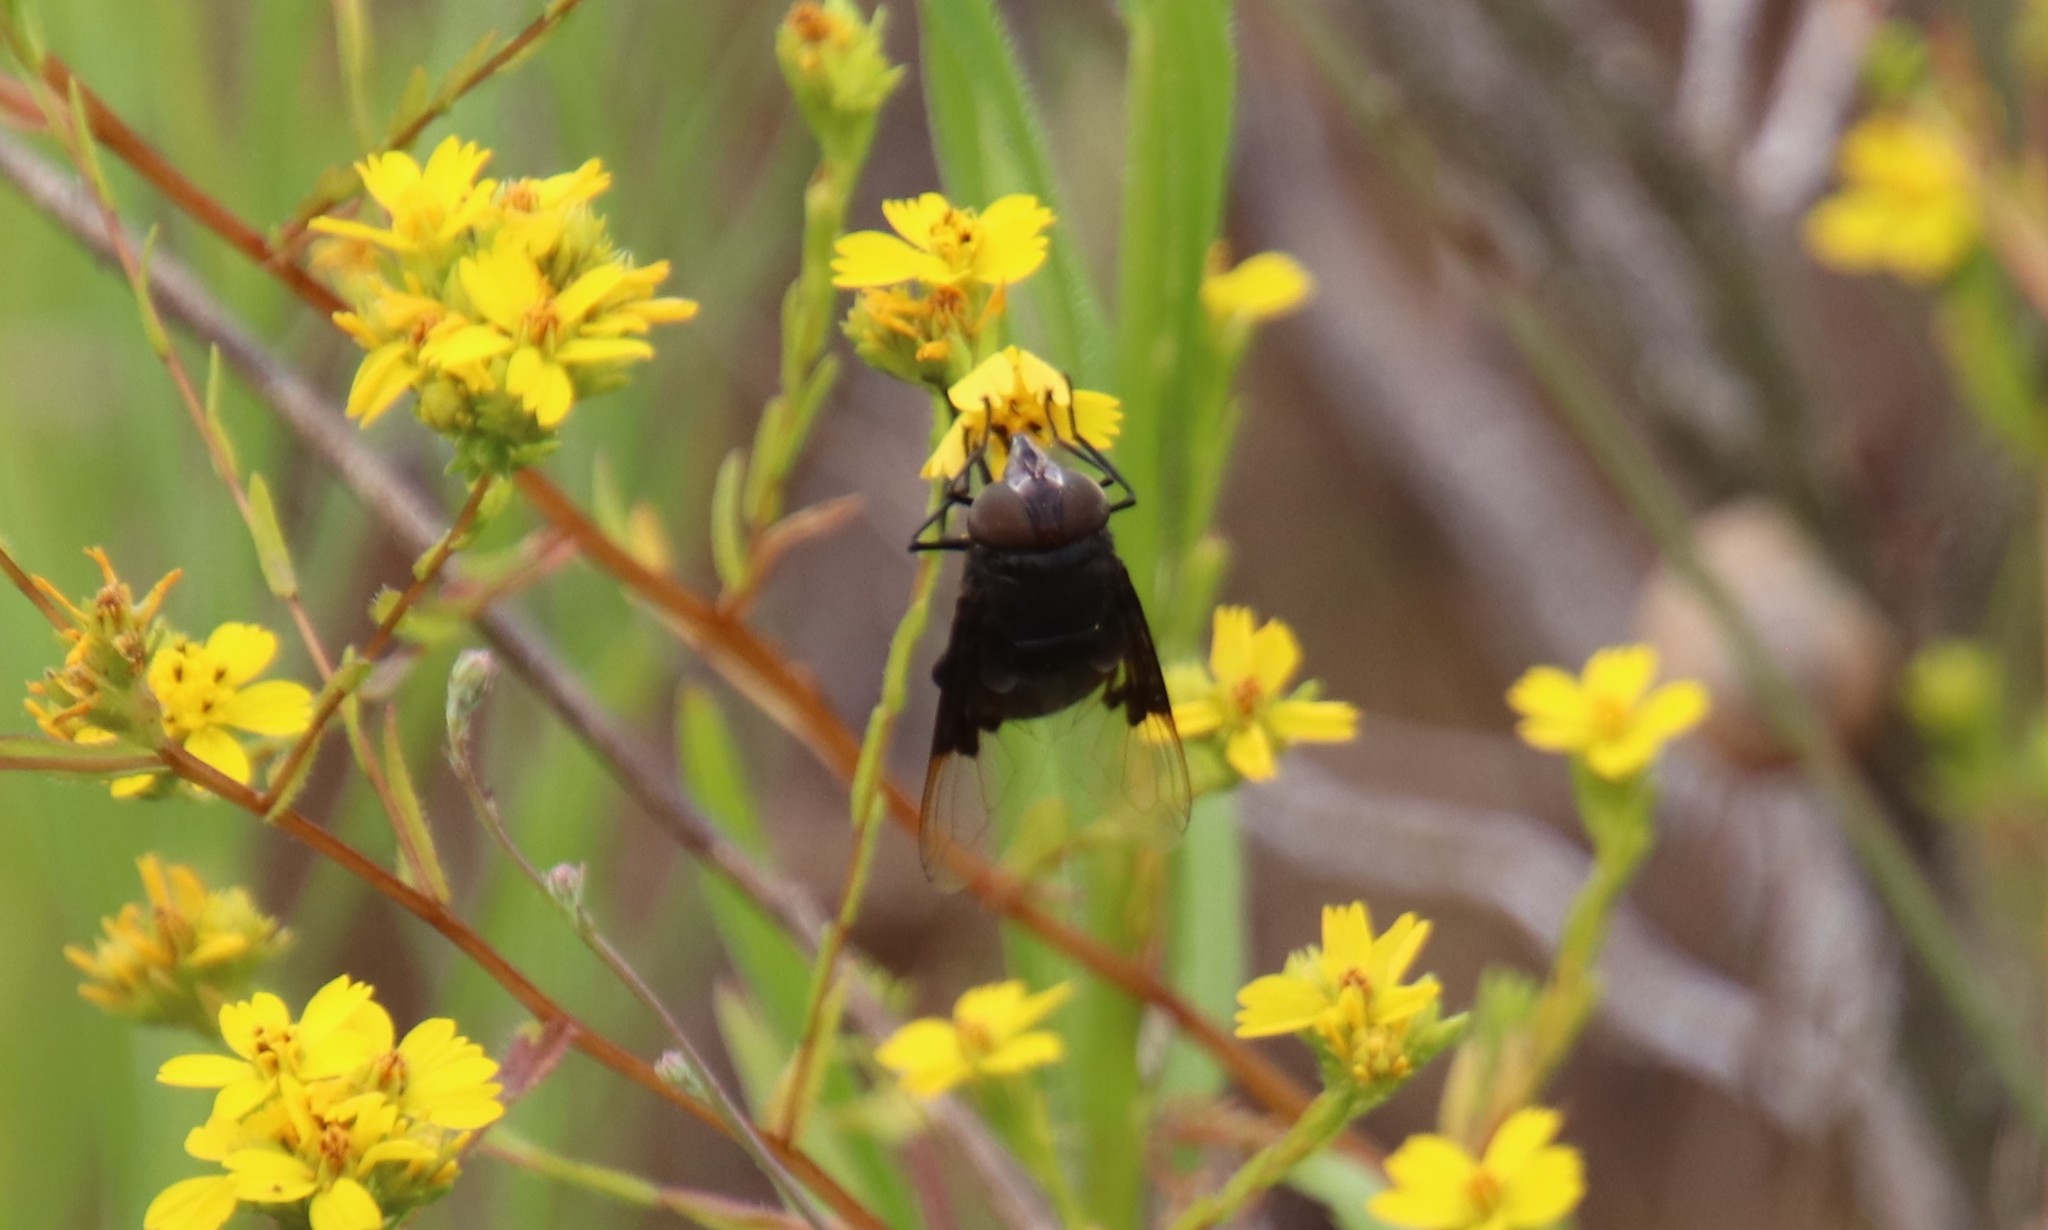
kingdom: Animalia
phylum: Arthropoda
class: Insecta
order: Diptera
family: Syrphidae
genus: Copestylum
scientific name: Copestylum violaceum
